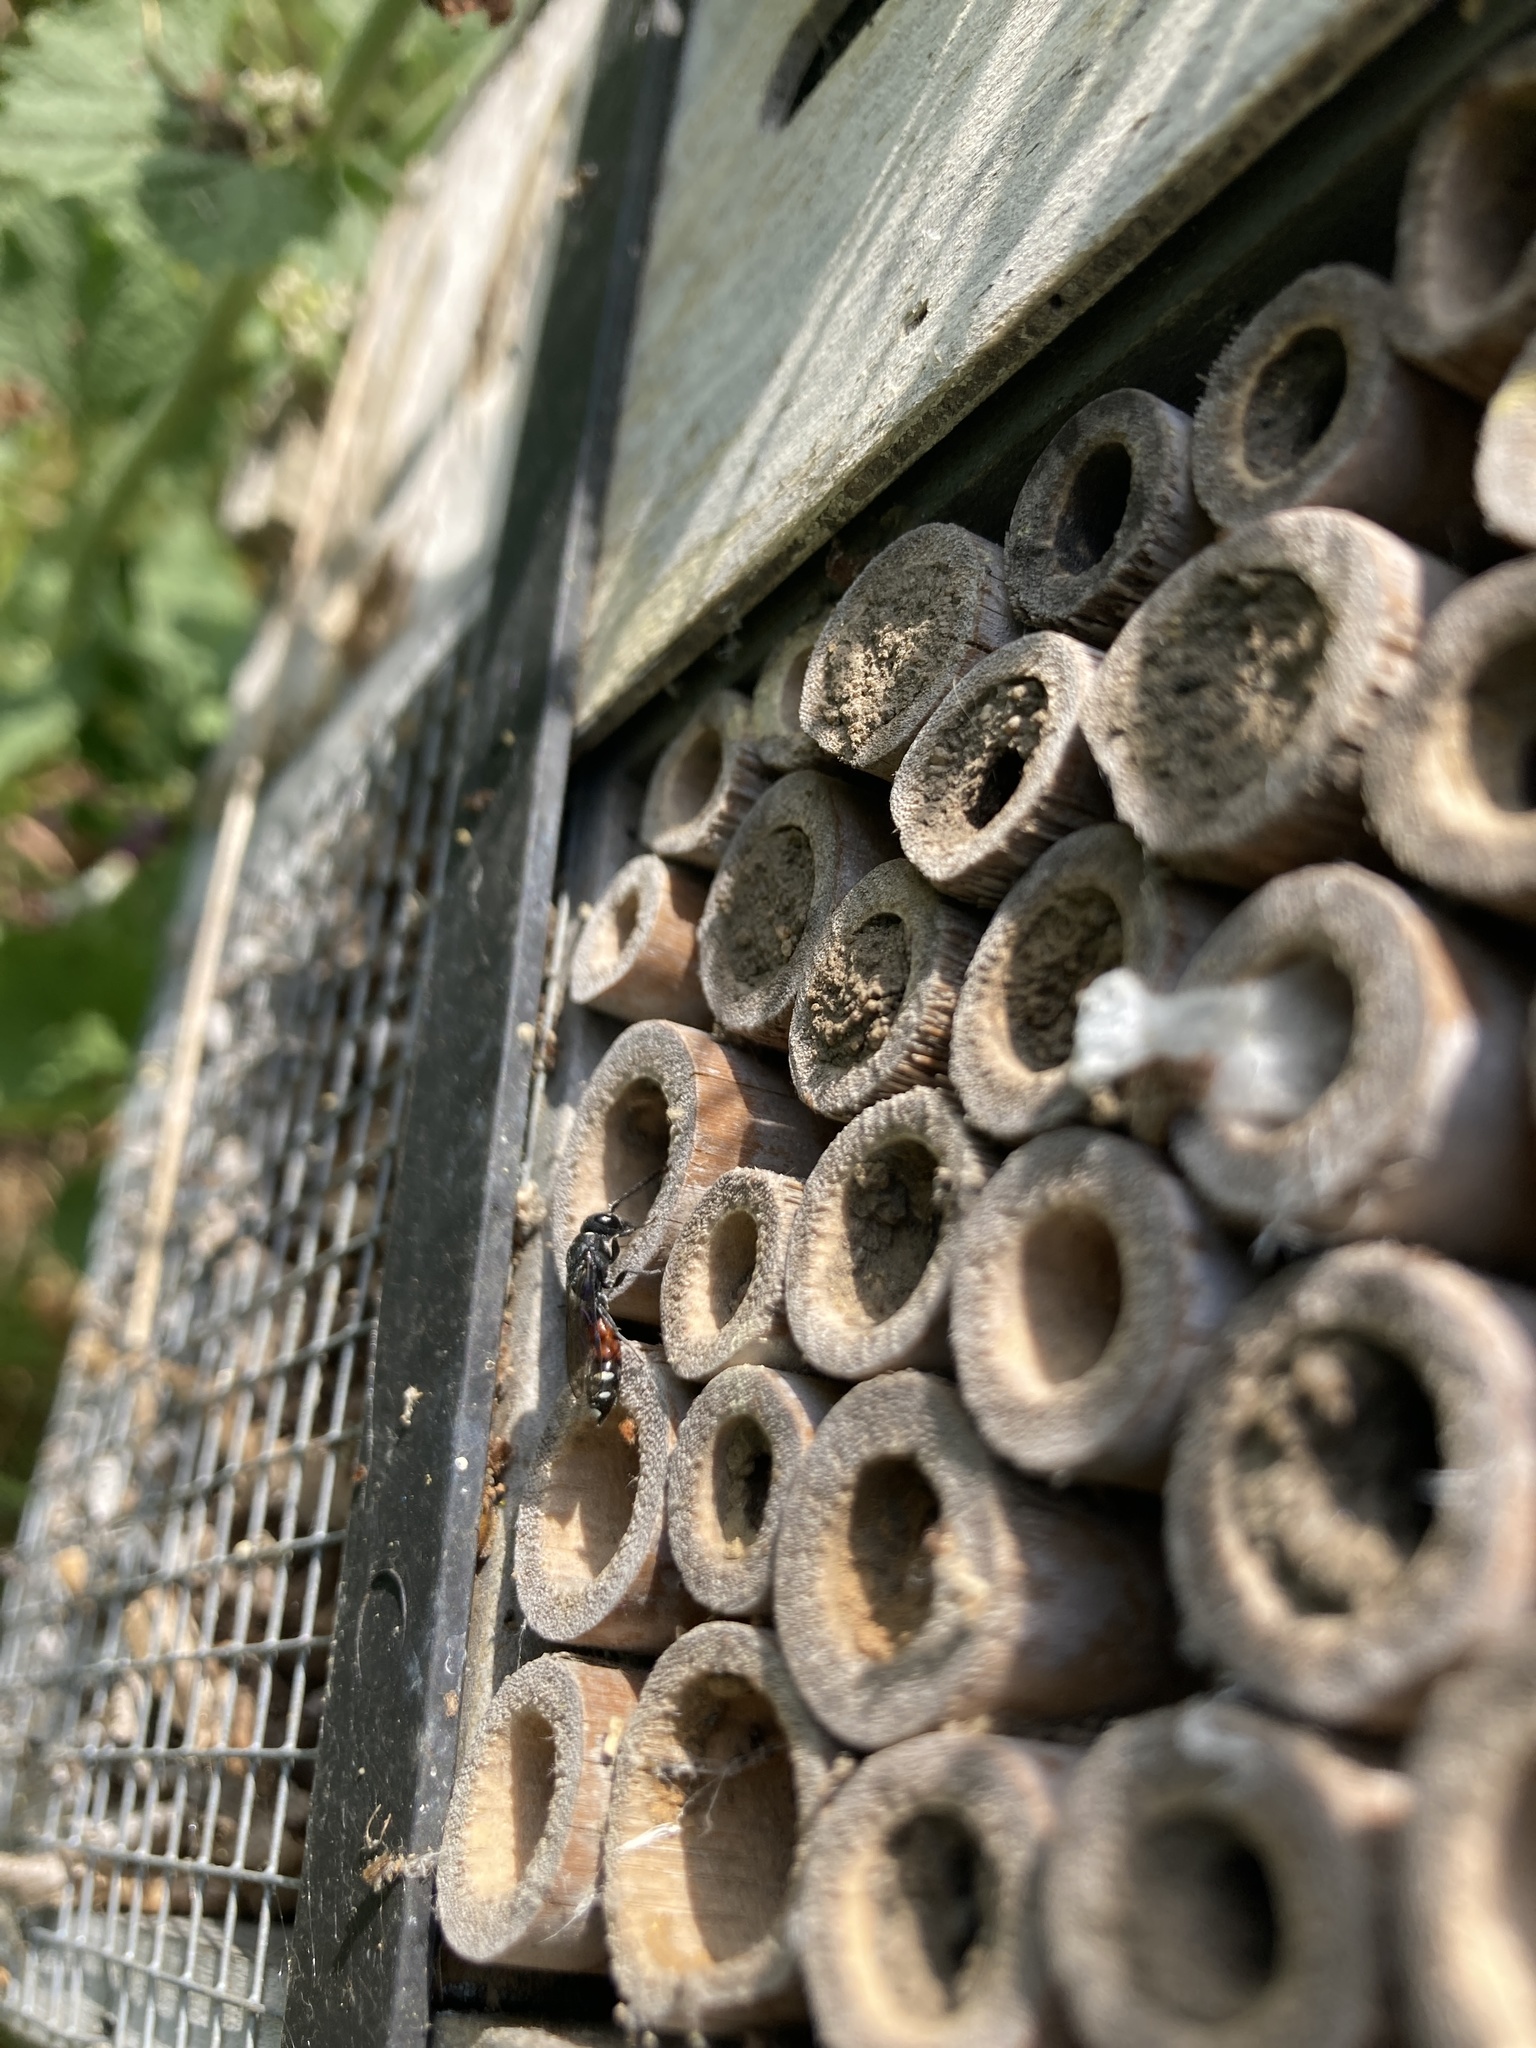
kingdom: Animalia
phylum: Arthropoda
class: Insecta
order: Hymenoptera
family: Sapygidae
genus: Sapyga
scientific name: Sapyga quinquepunctata
